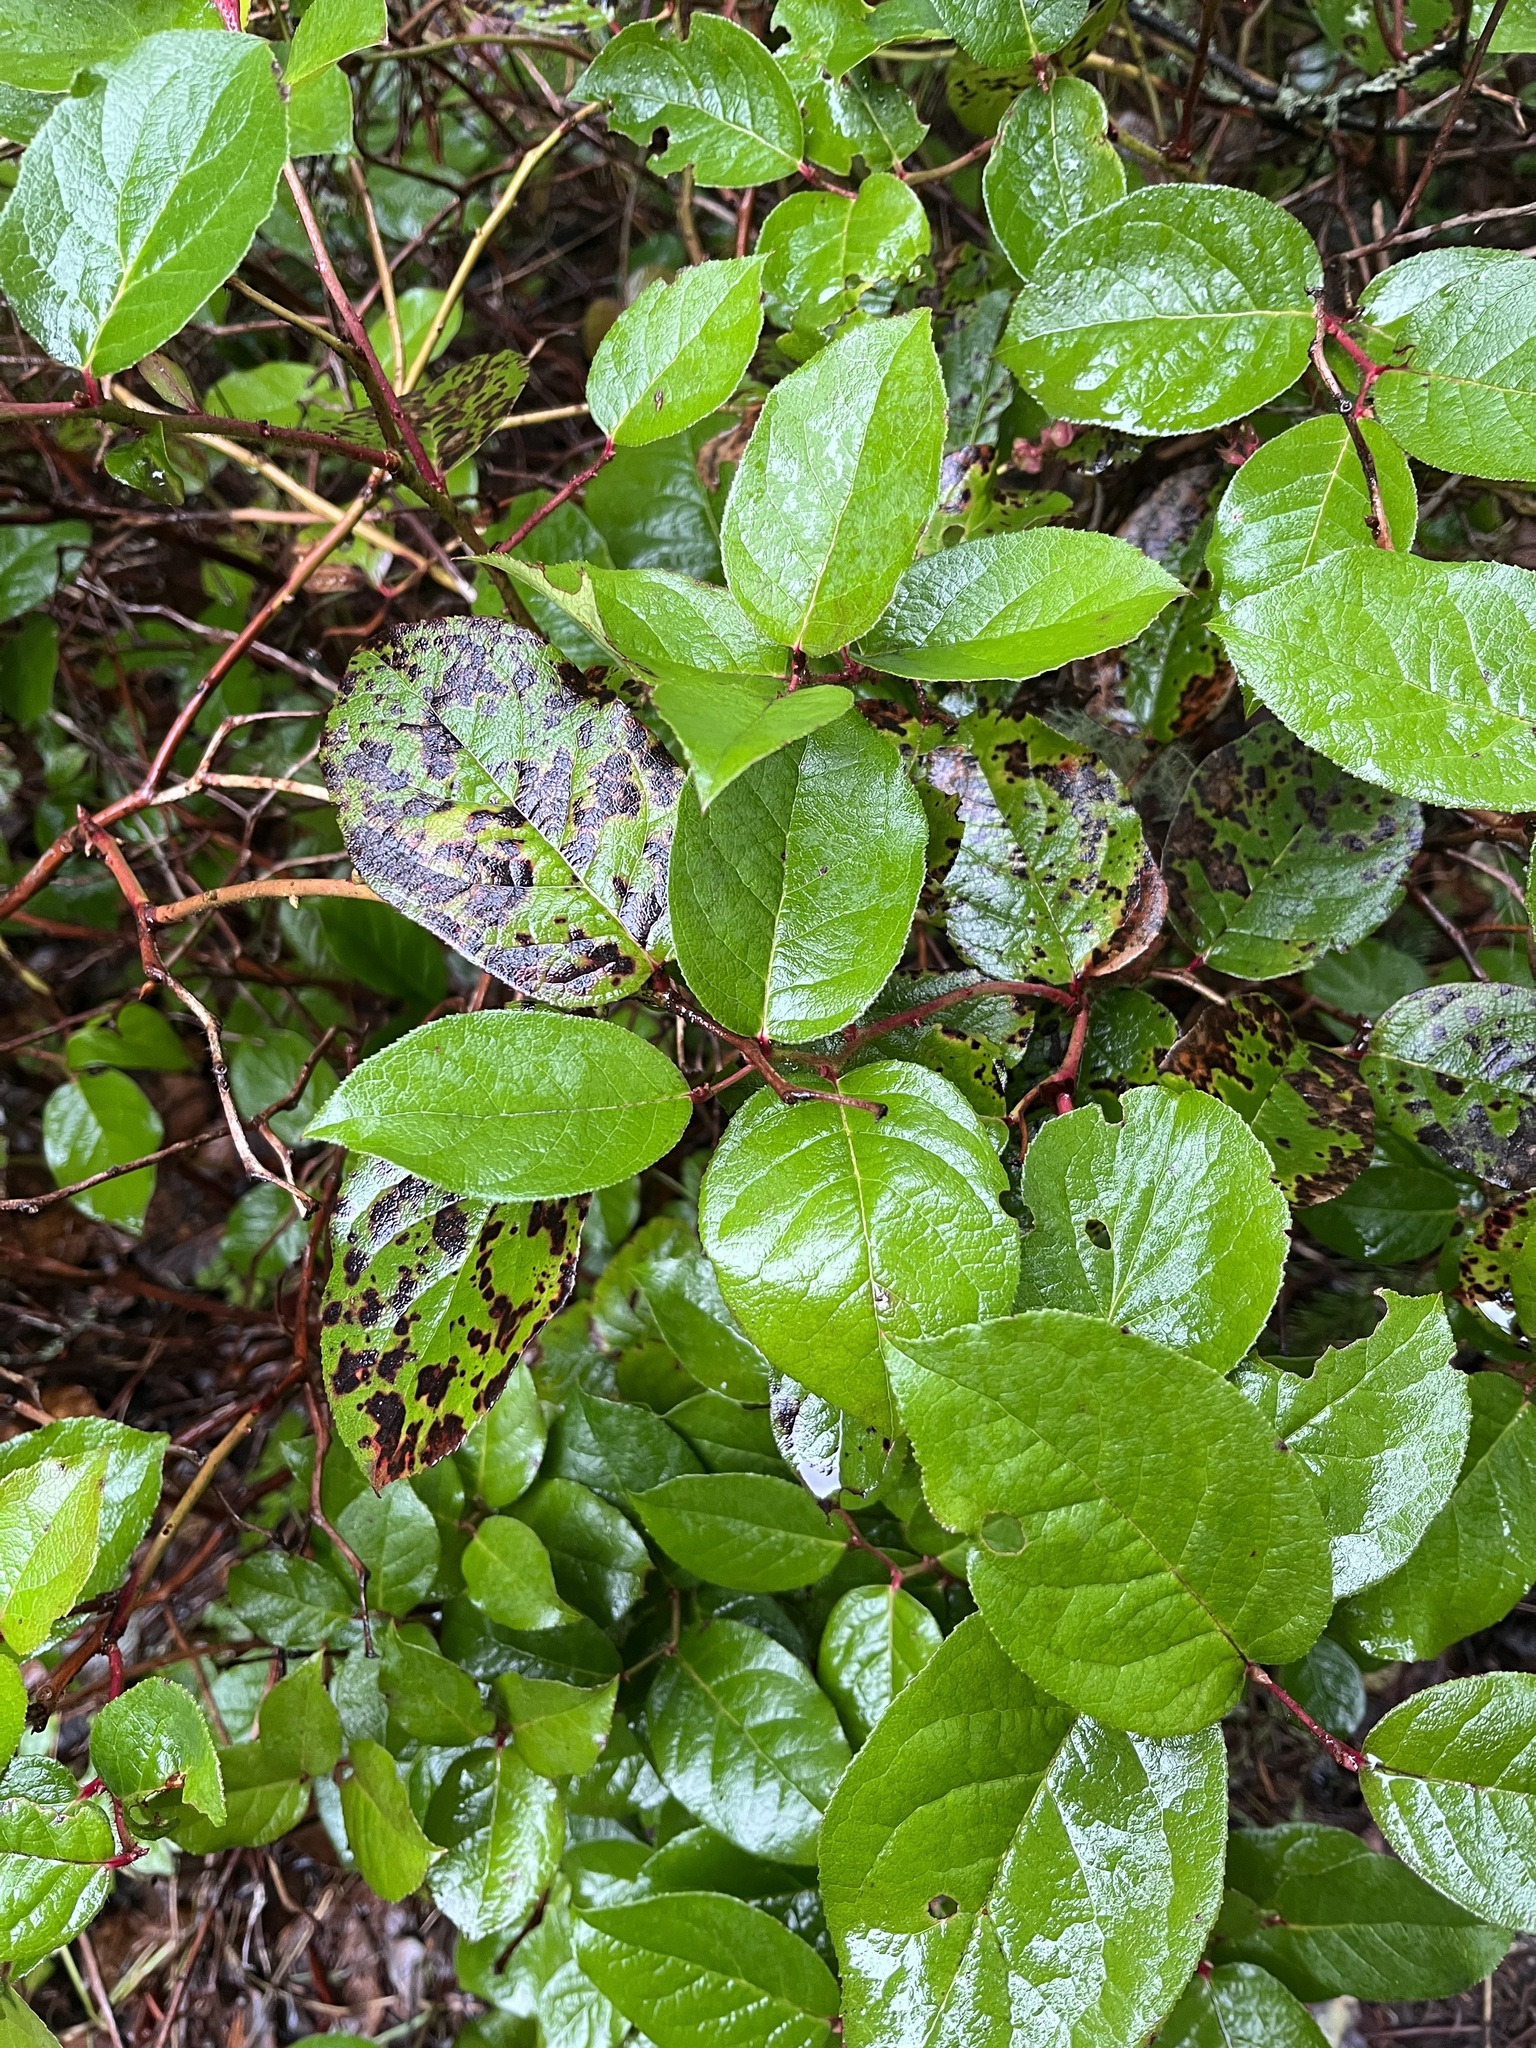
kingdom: Plantae
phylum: Tracheophyta
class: Magnoliopsida
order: Ericales
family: Ericaceae
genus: Gaultheria
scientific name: Gaultheria shallon
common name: Shallon
